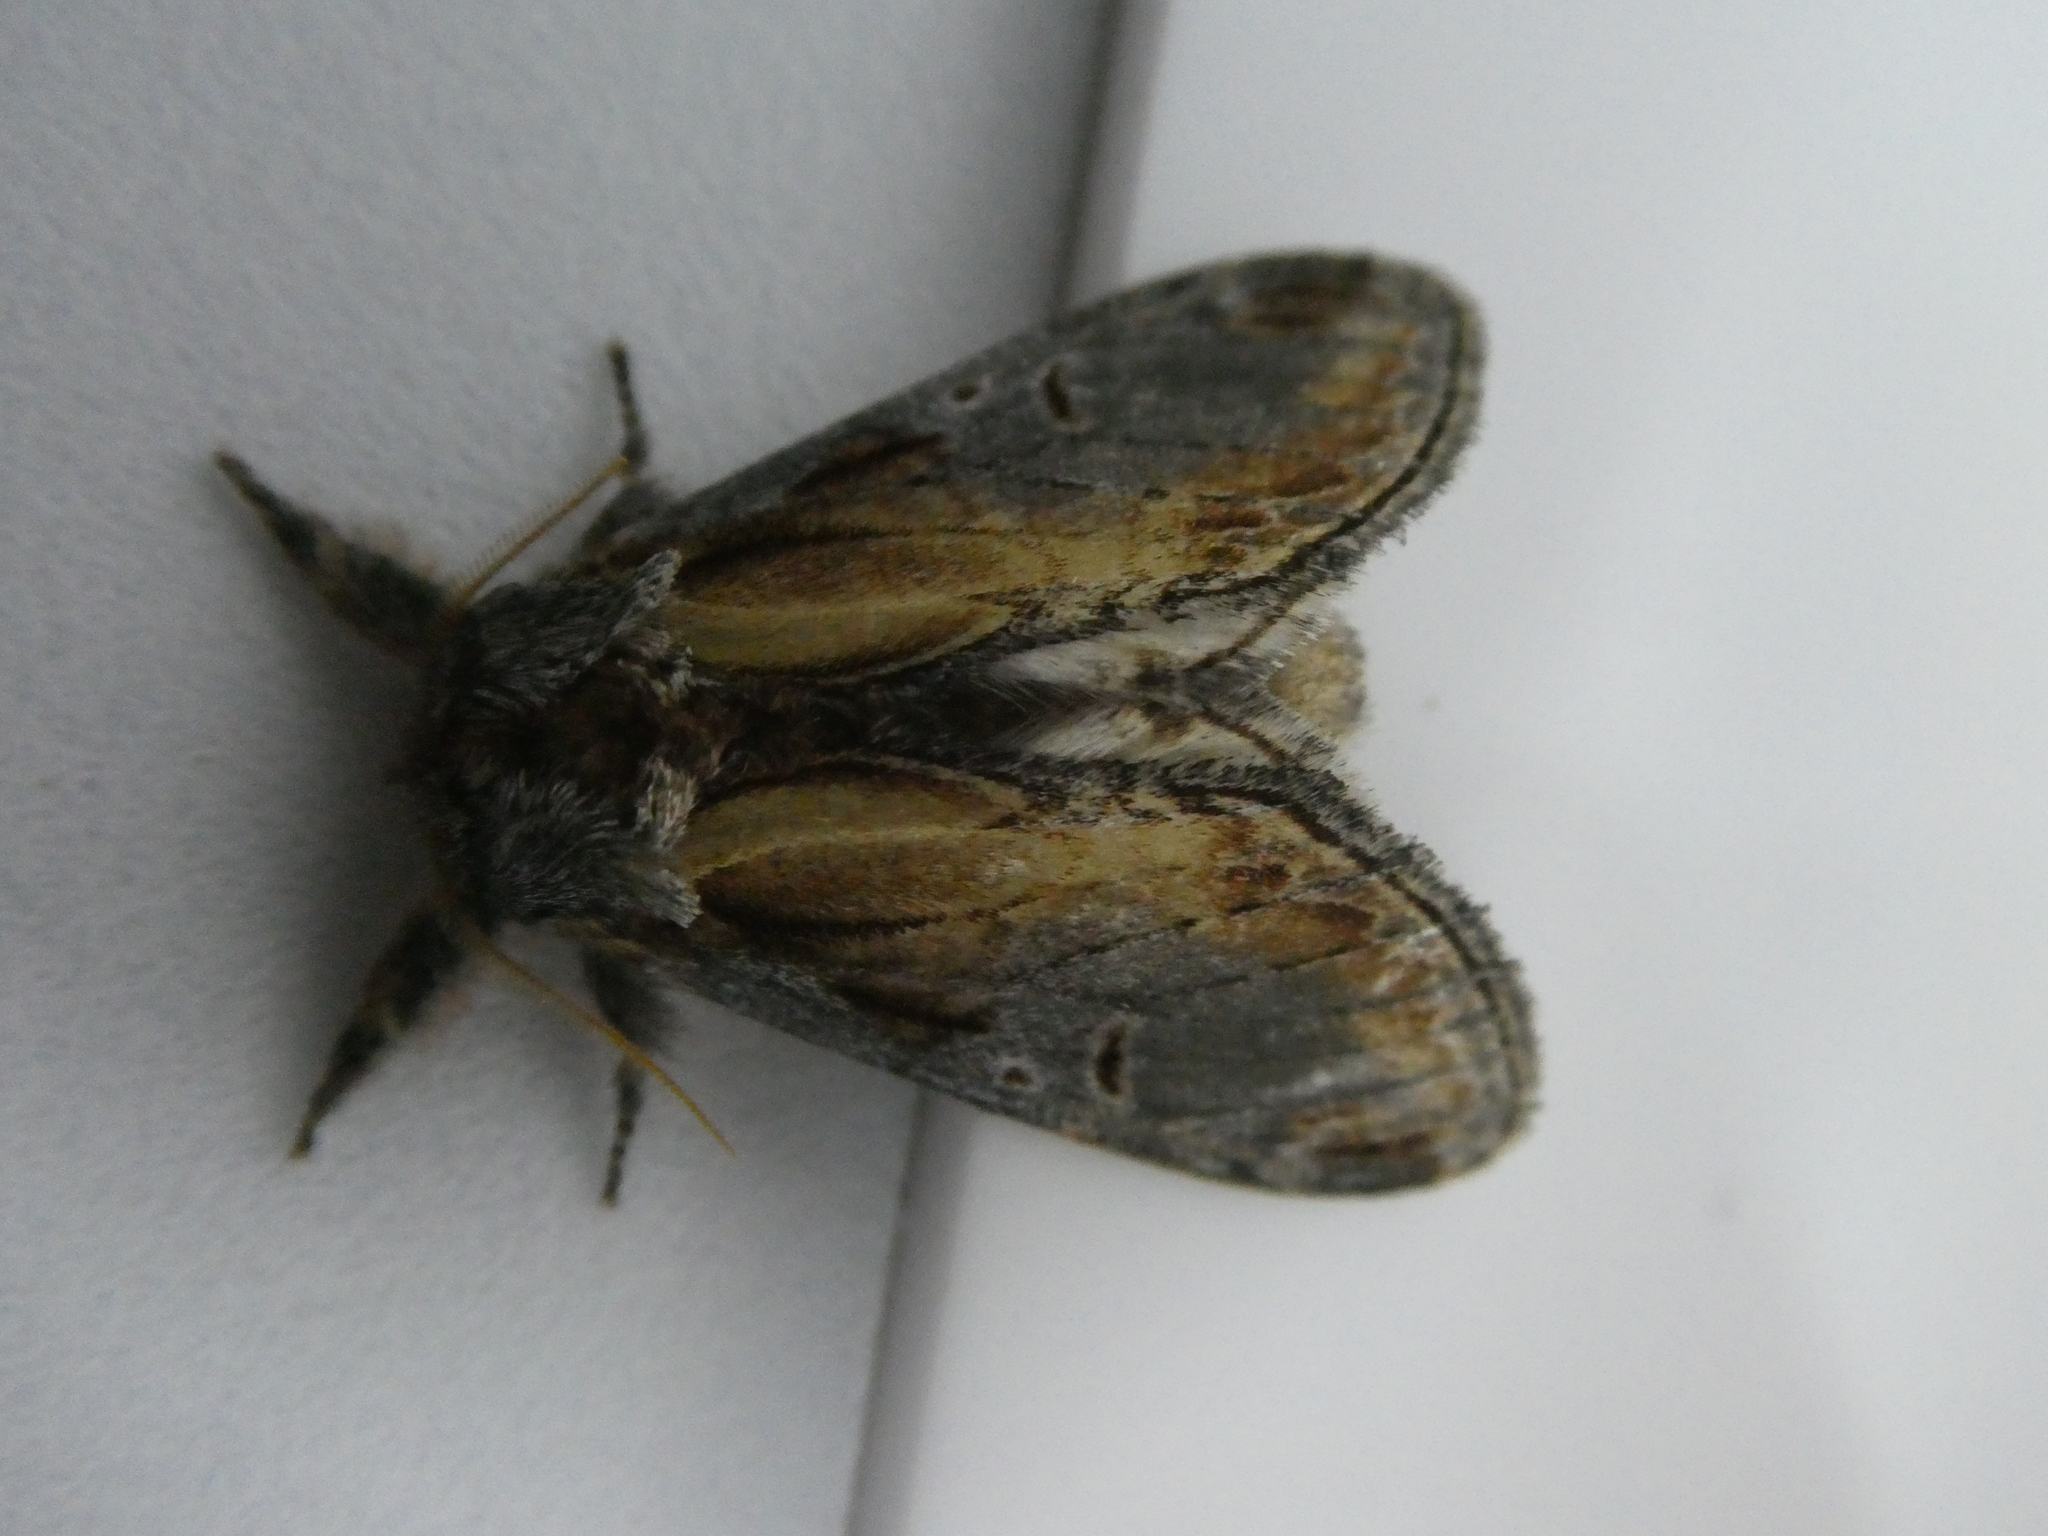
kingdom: Animalia
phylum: Arthropoda
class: Insecta
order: Lepidoptera
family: Notodontidae
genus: Notodonta
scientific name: Notodonta scitipennis
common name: Finned-willow prominent moth
